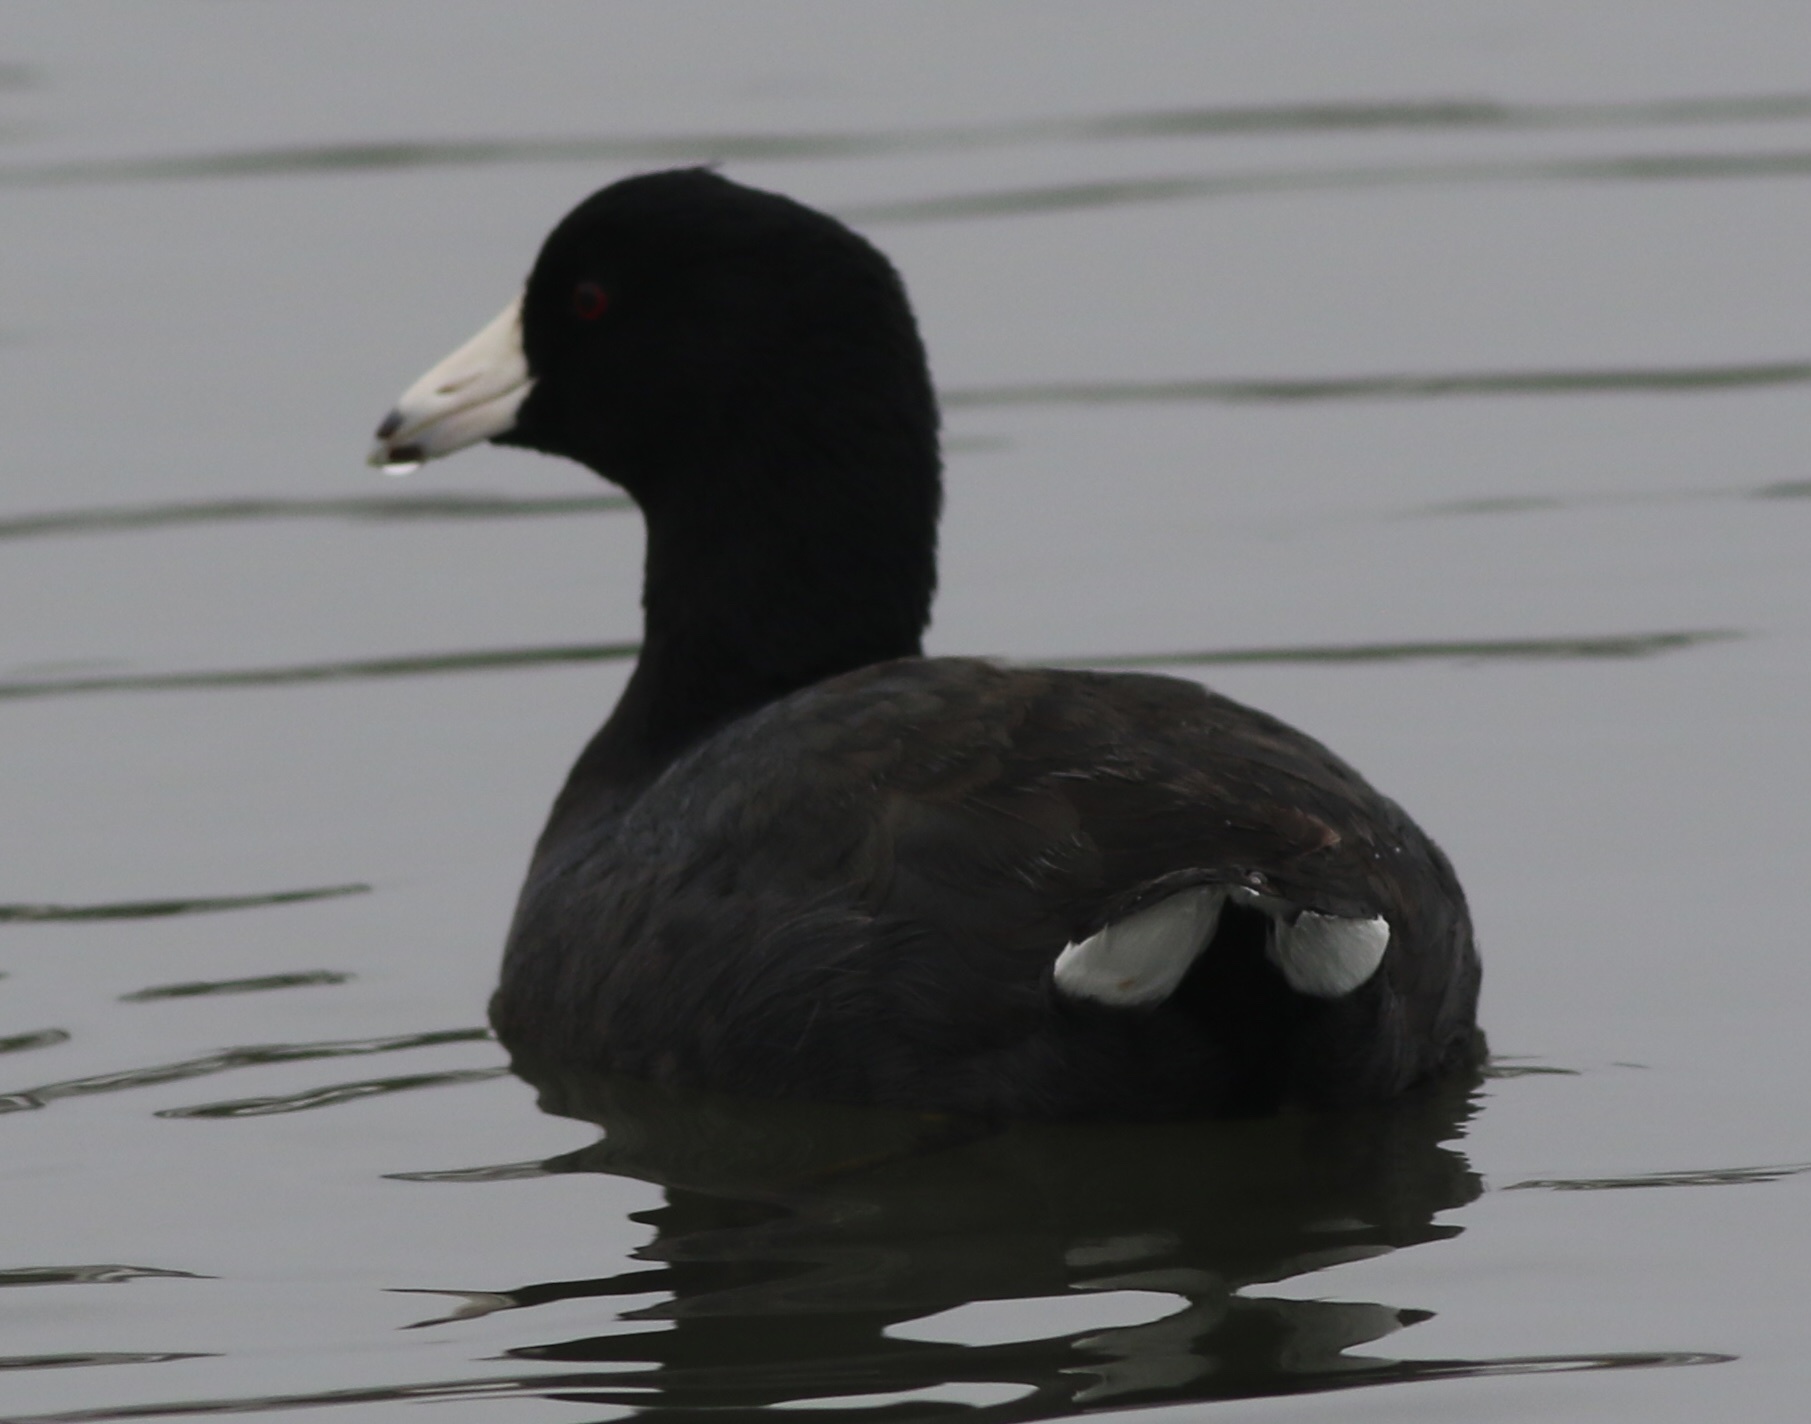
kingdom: Animalia
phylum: Chordata
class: Aves
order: Gruiformes
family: Rallidae
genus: Fulica
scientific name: Fulica americana
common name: American coot
